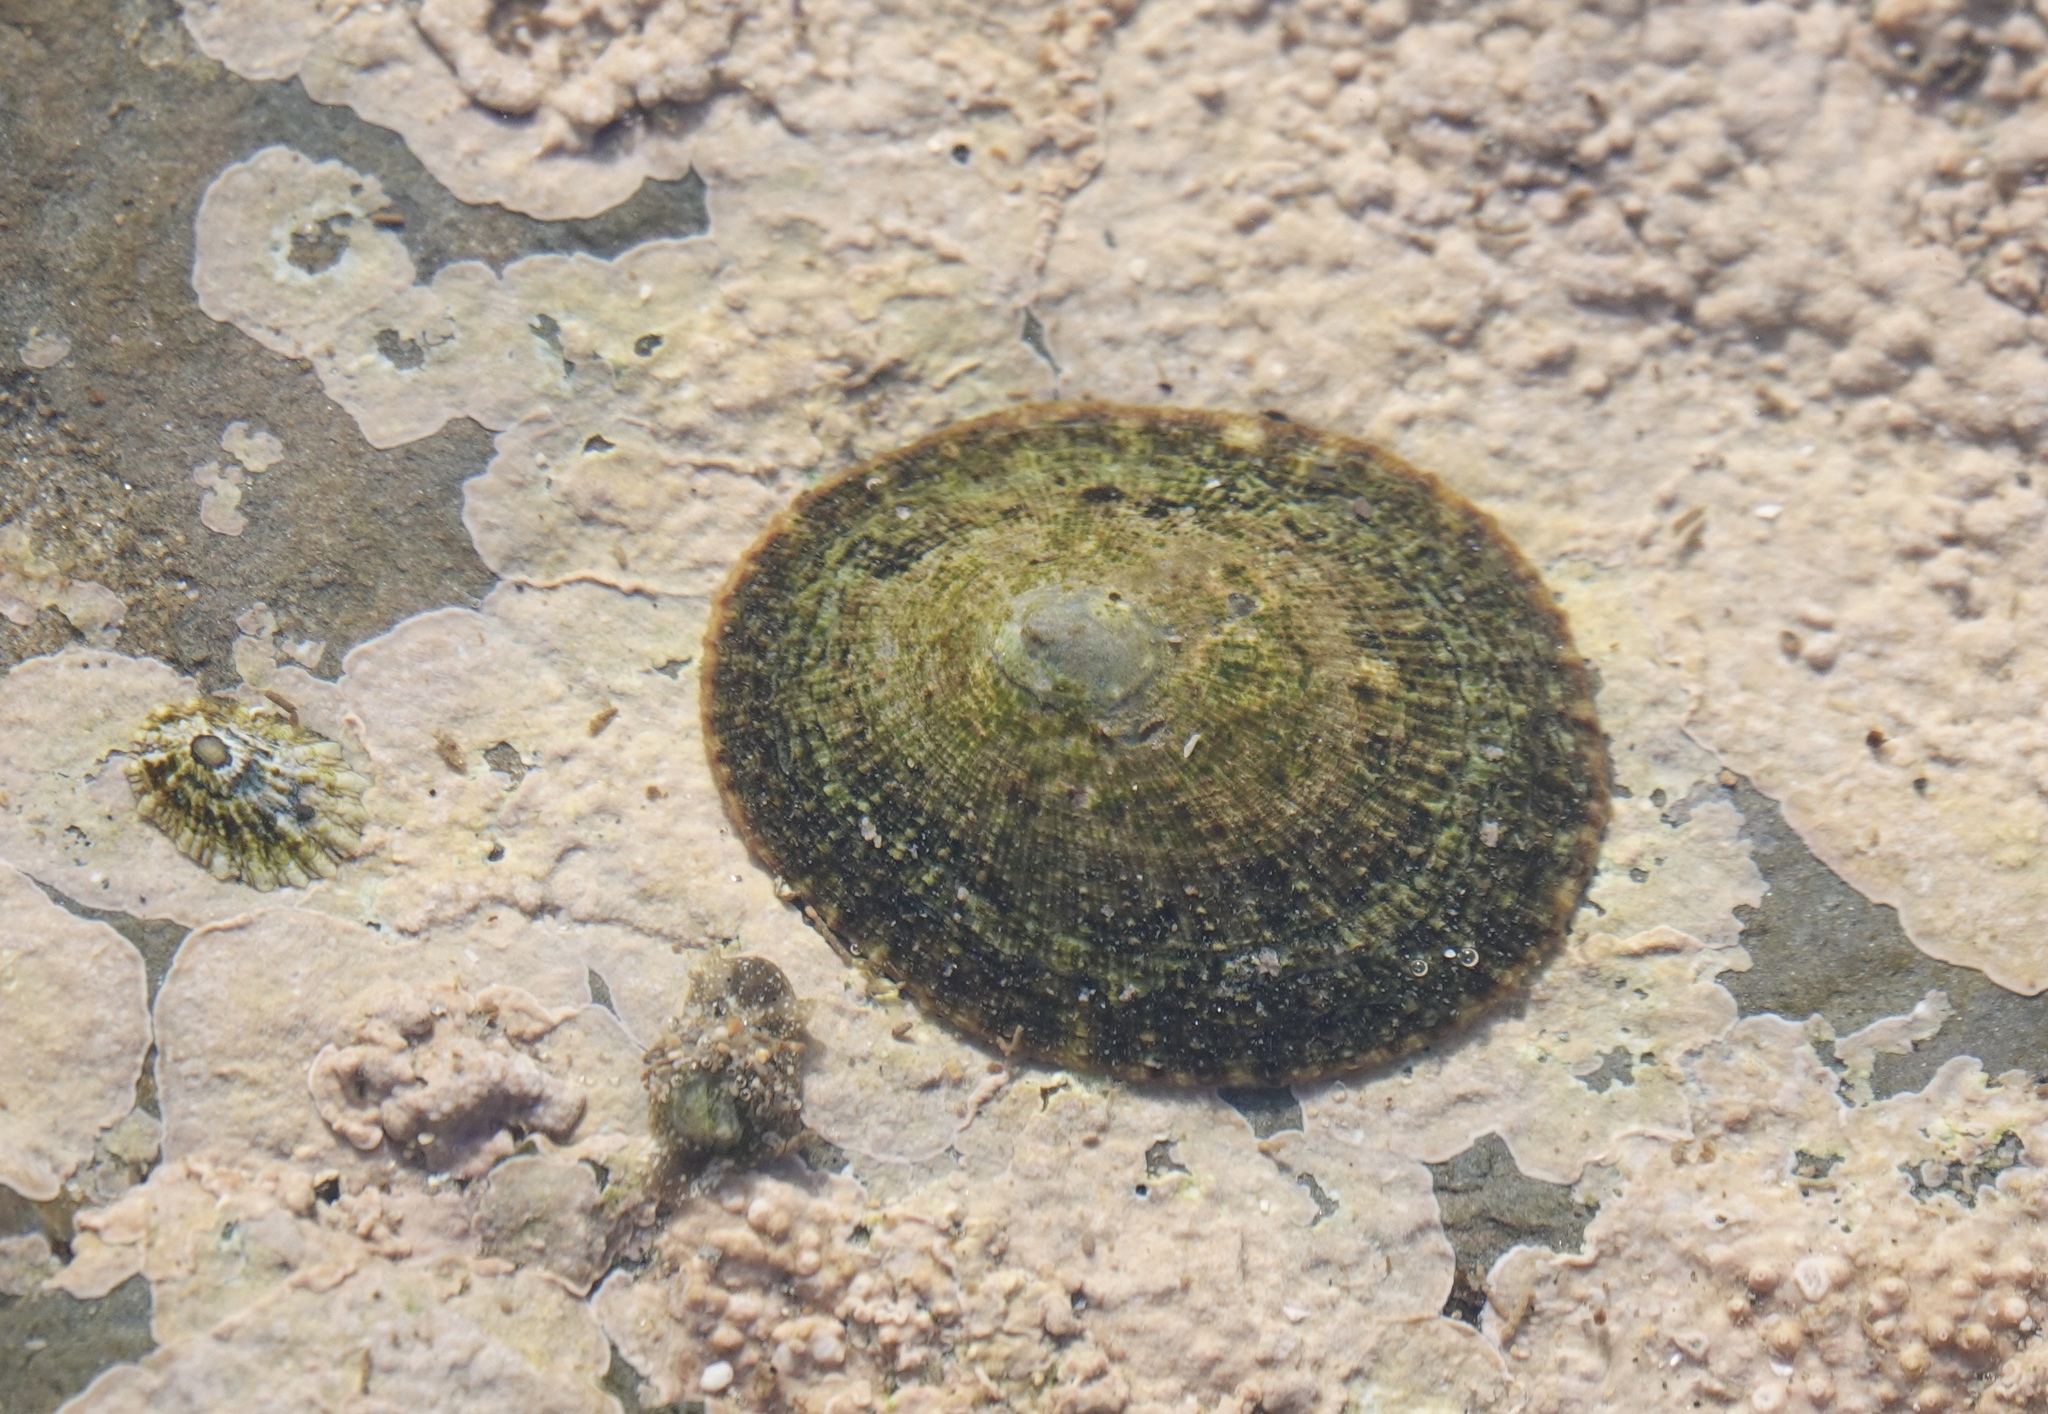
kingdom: Animalia
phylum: Mollusca
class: Gastropoda
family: Lottiidae
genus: Lottia
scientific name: Lottia limatula
